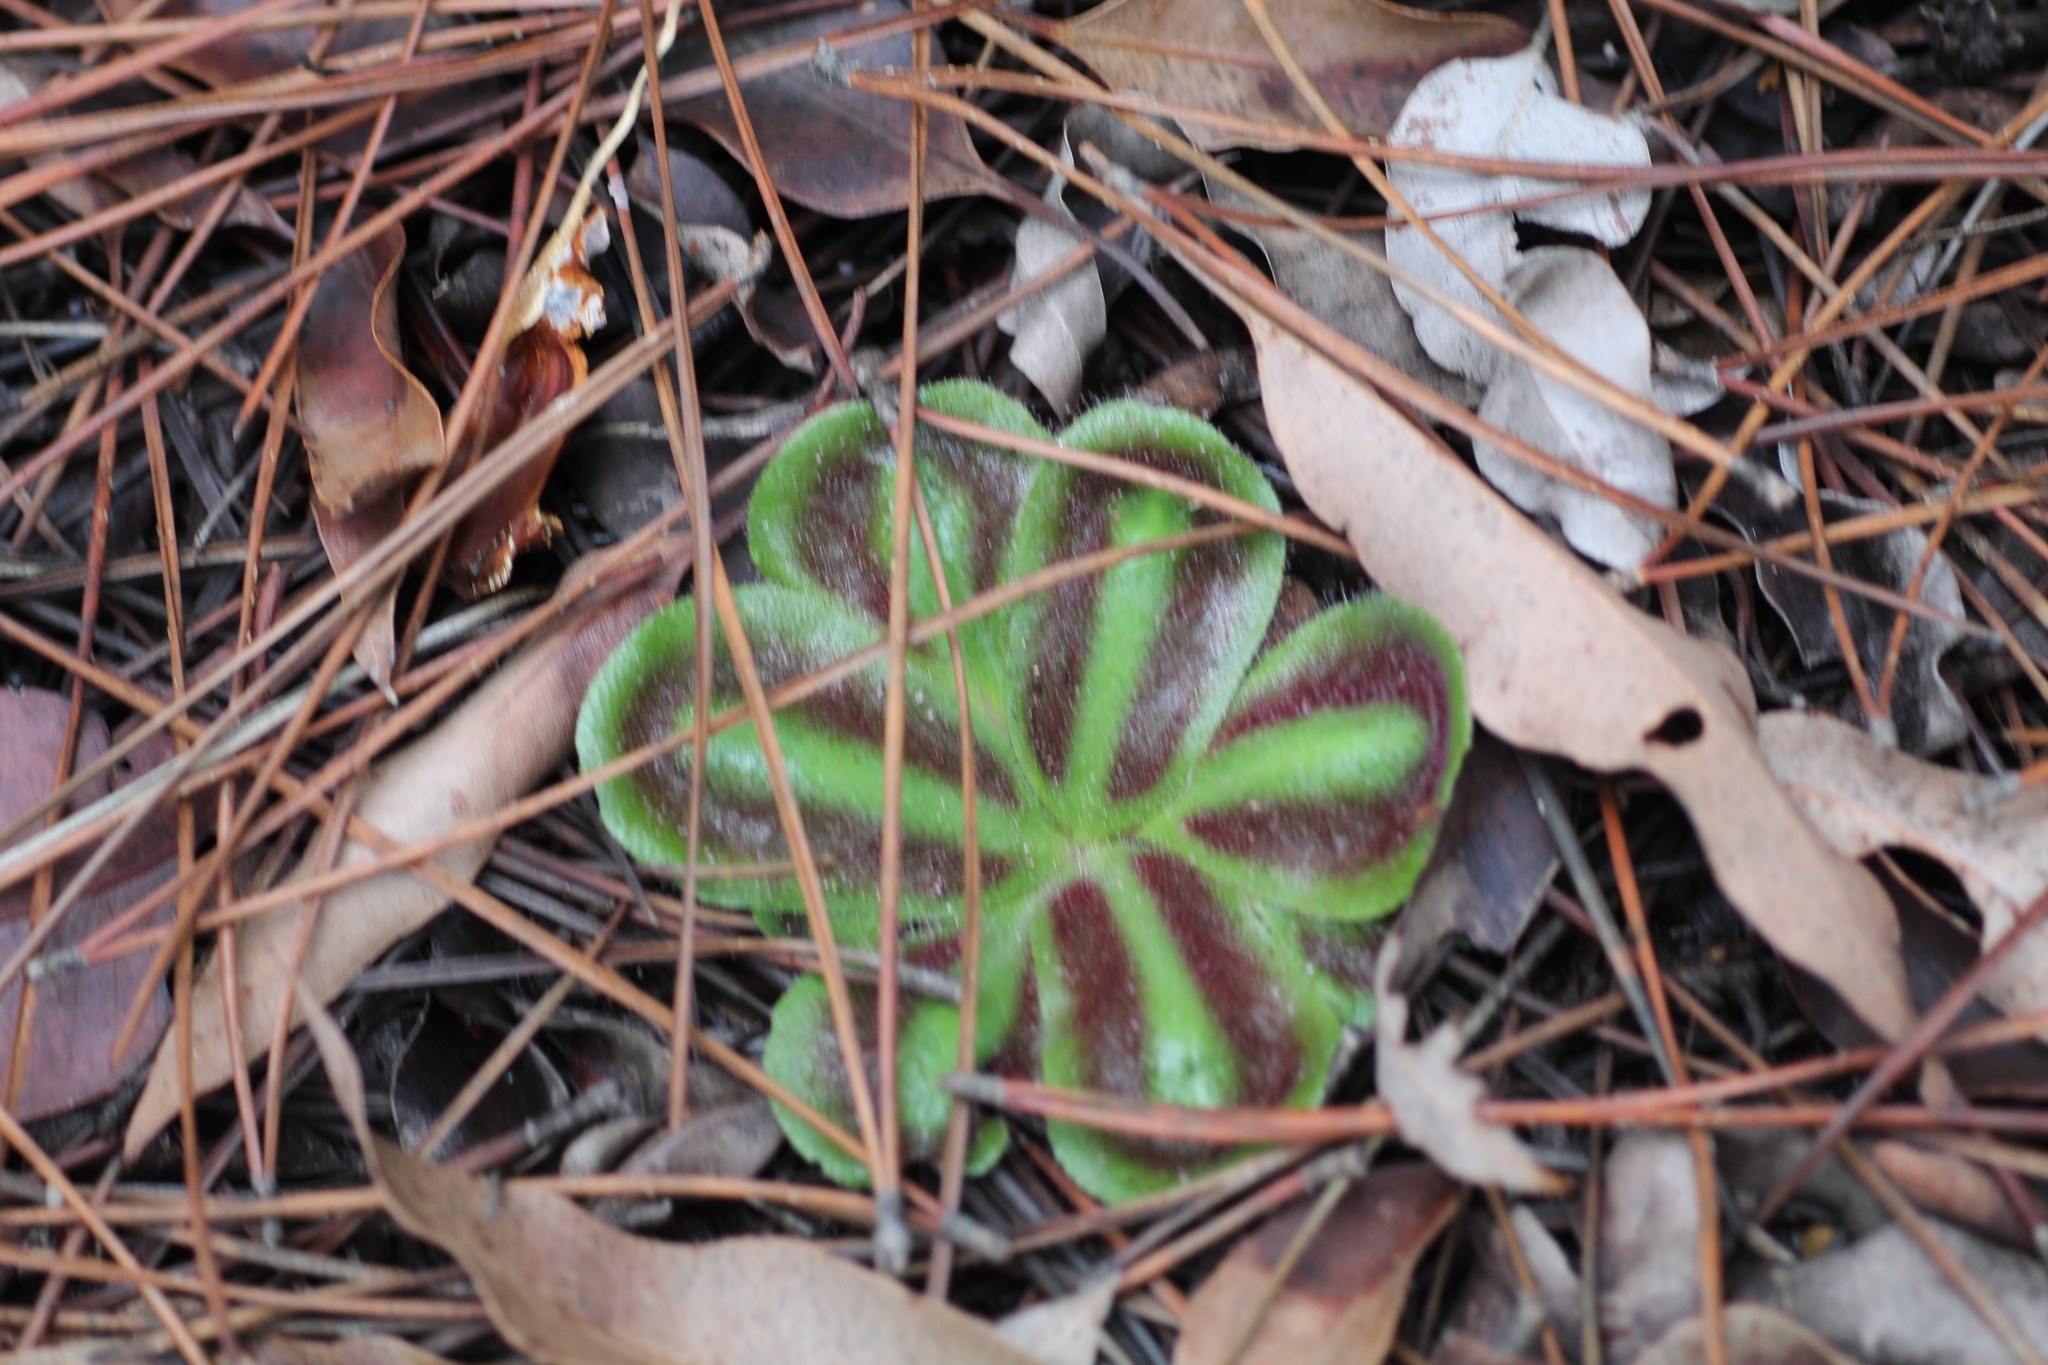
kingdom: Plantae
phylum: Tracheophyta
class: Magnoliopsida
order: Caryophyllales
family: Droseraceae
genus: Drosera
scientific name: Drosera erythrorhiza
